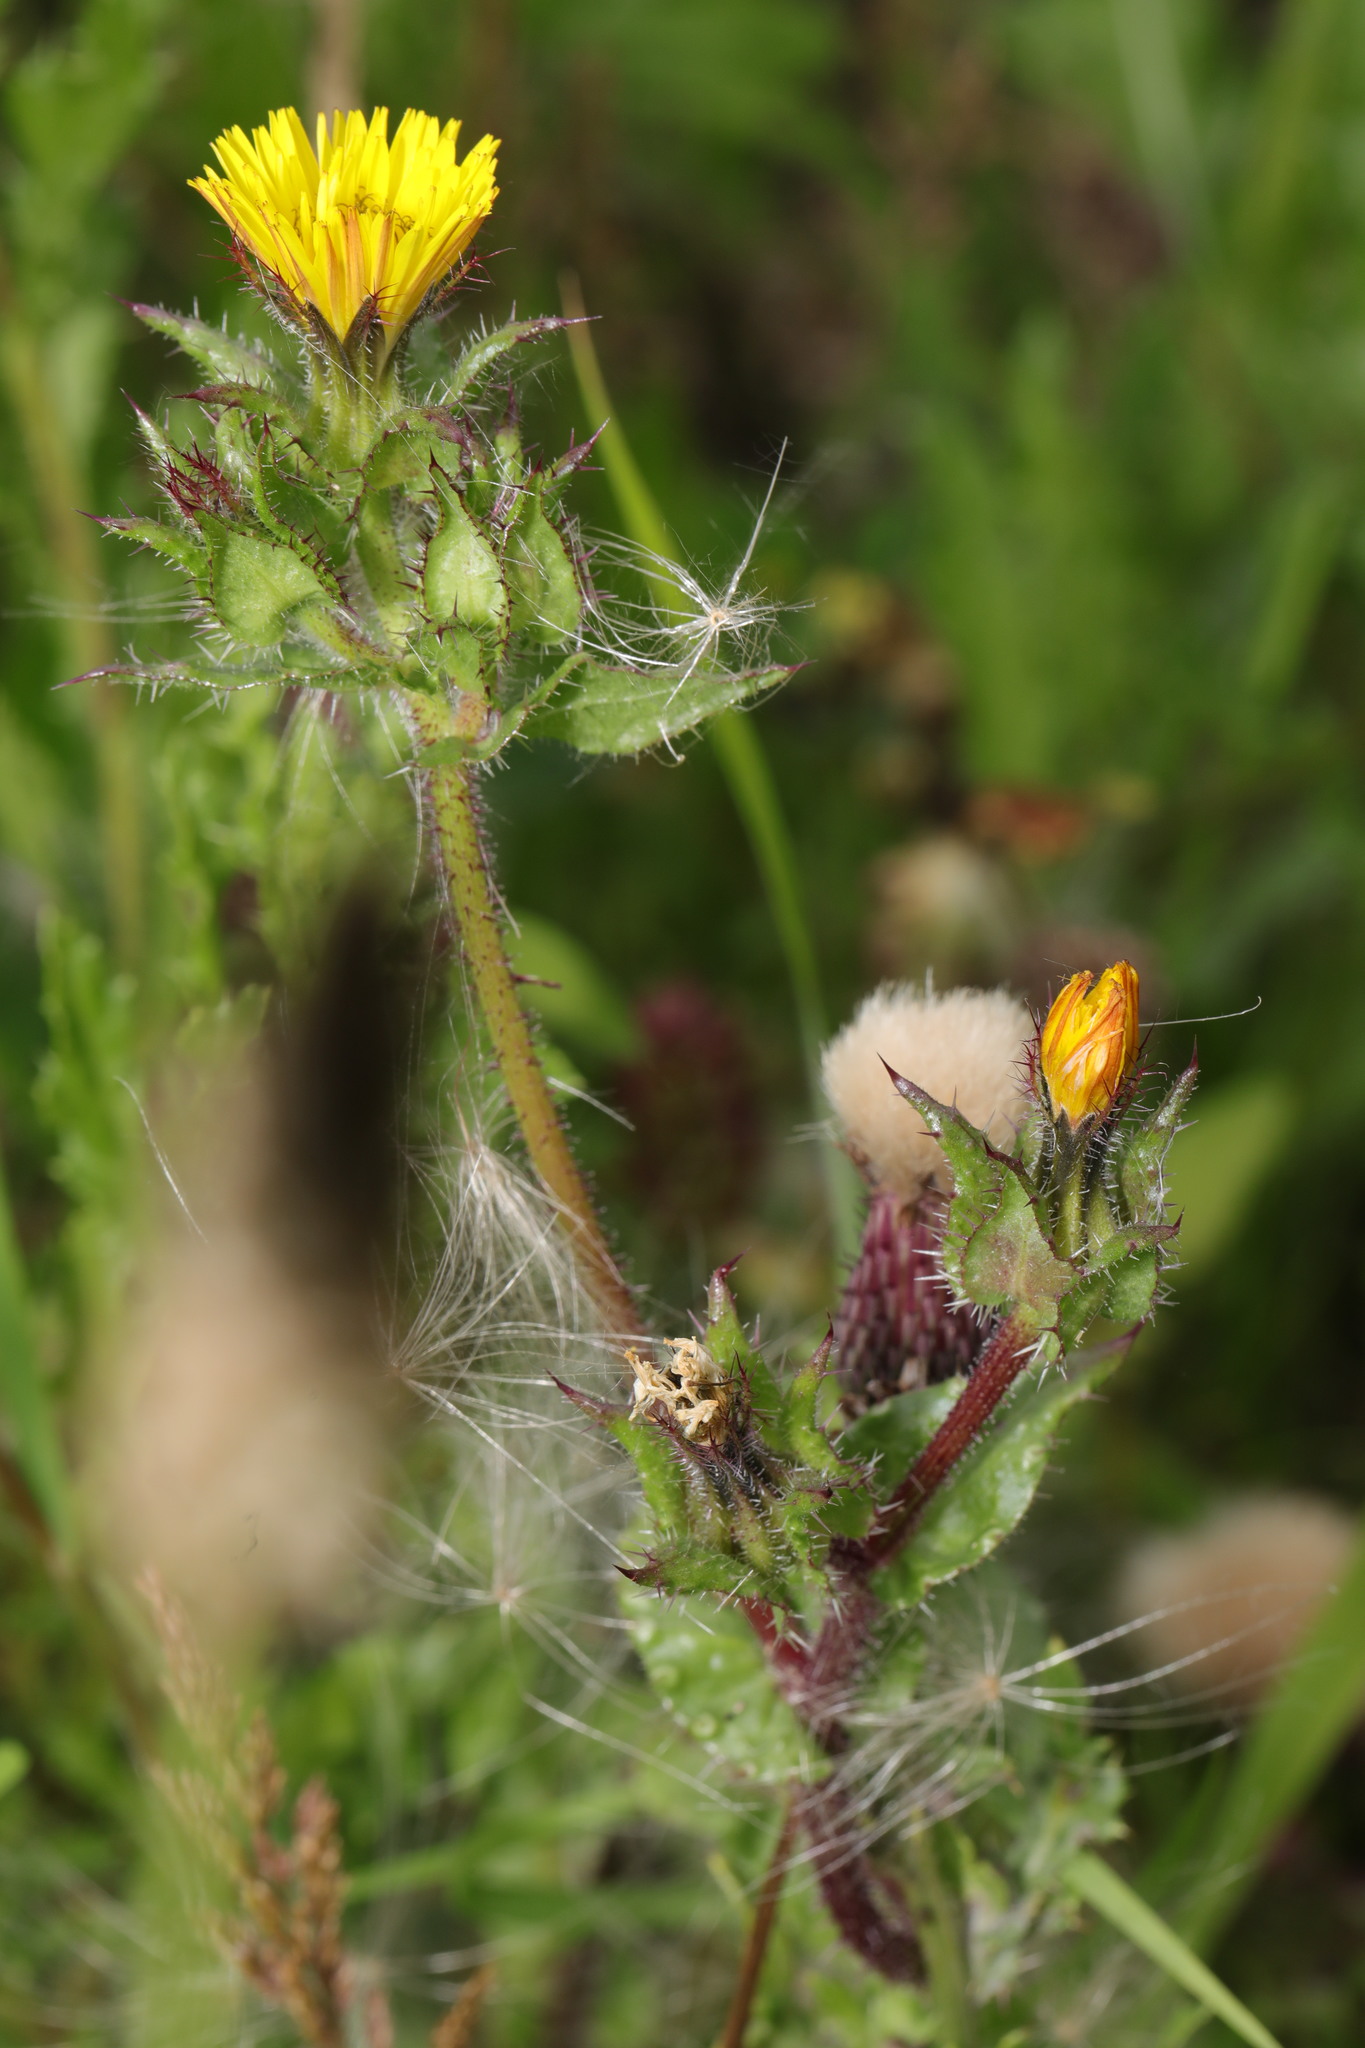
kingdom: Plantae
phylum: Tracheophyta
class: Magnoliopsida
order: Asterales
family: Asteraceae
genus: Helminthotheca
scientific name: Helminthotheca echioides
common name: Ox-tongue
